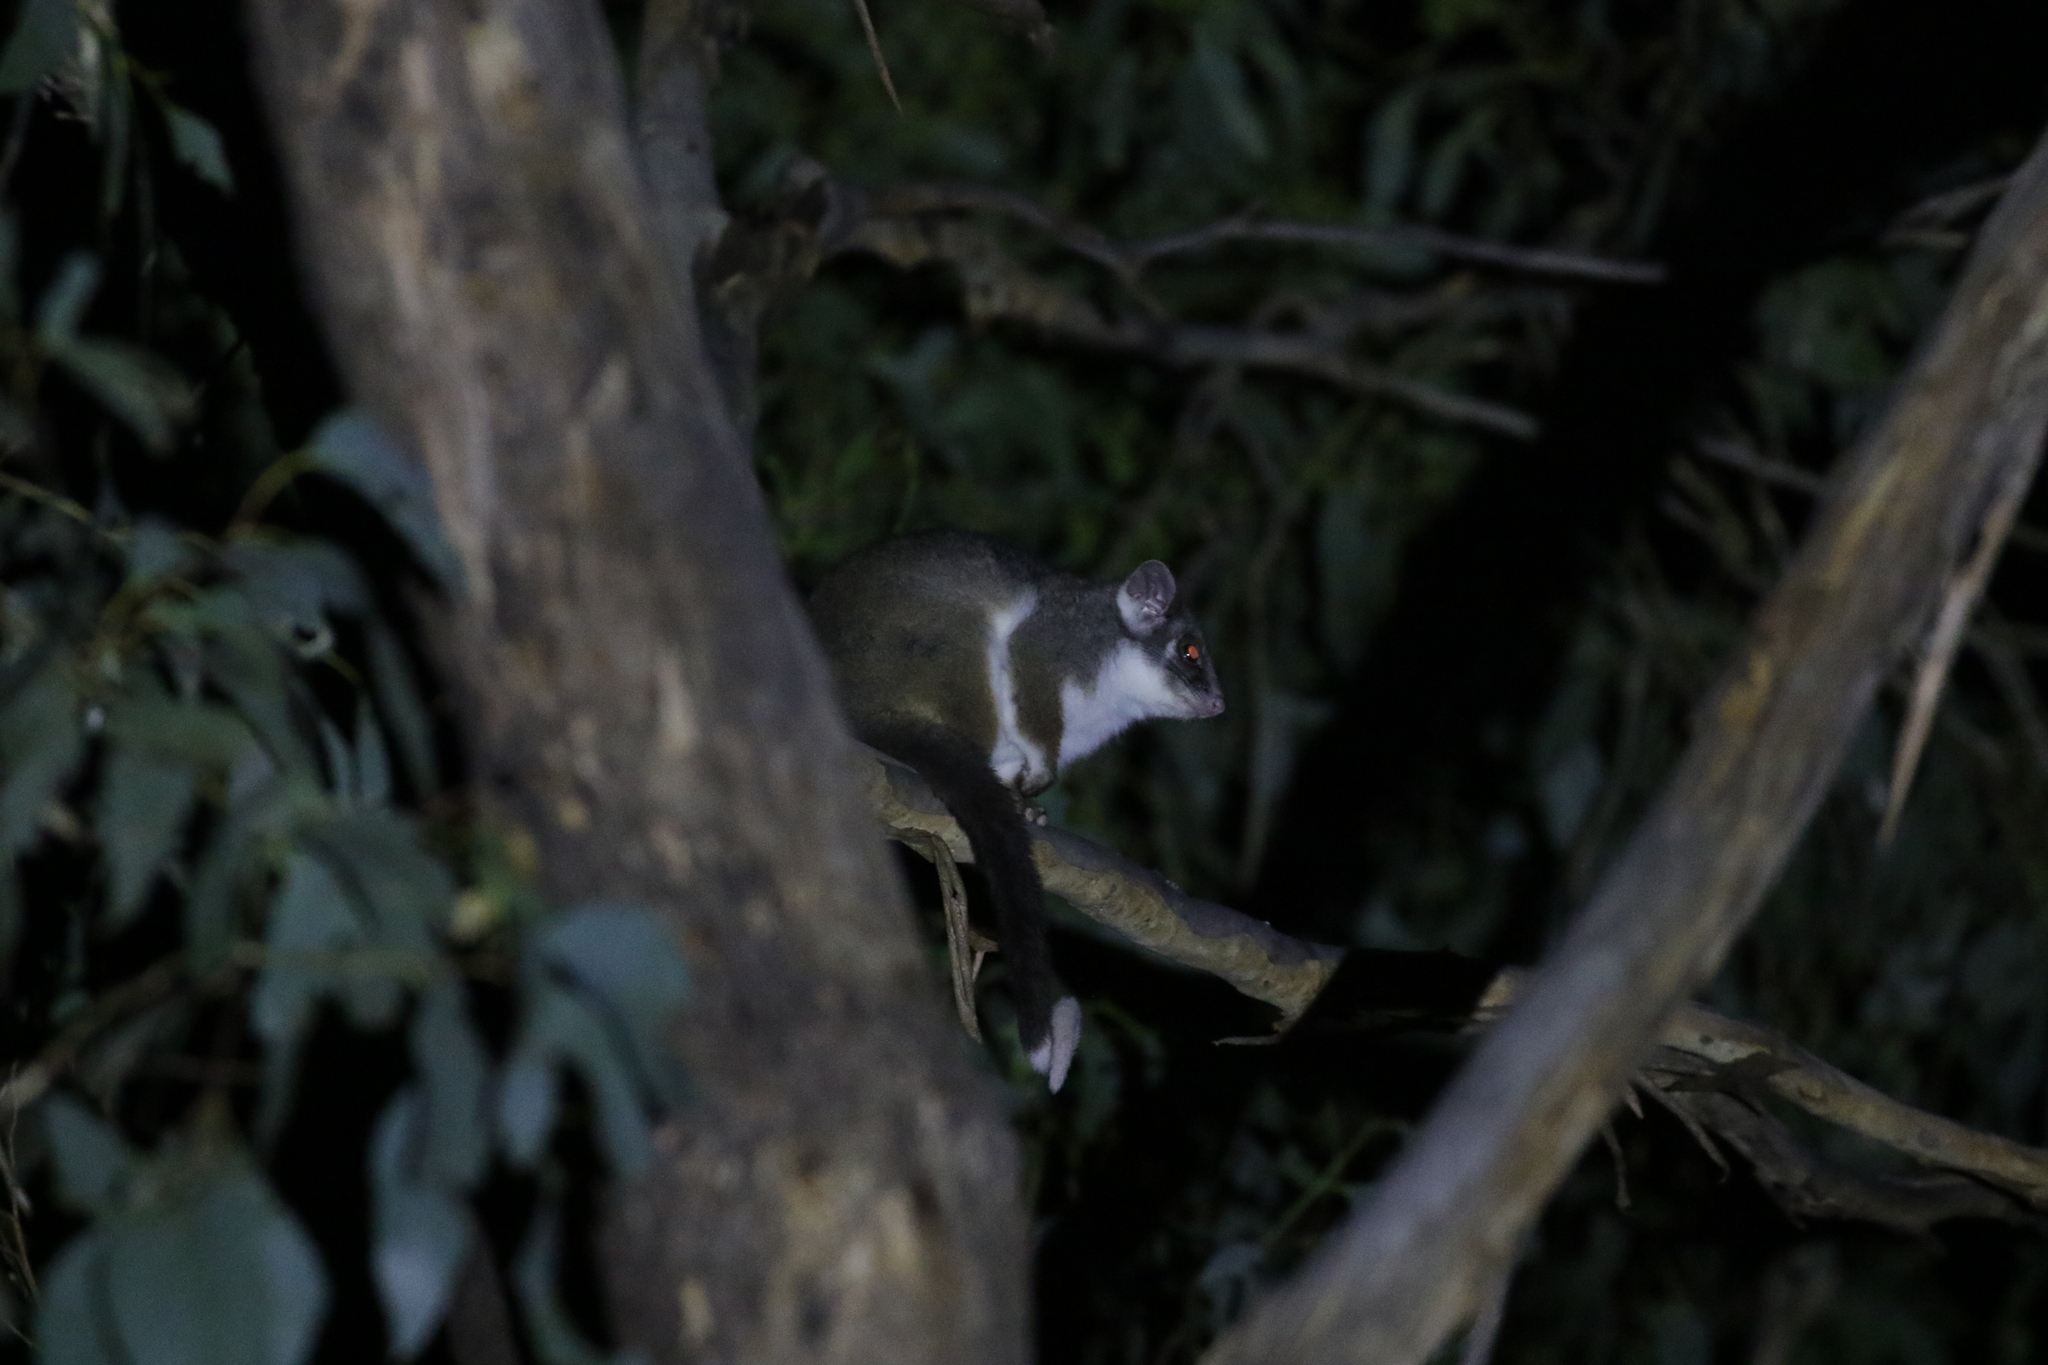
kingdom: Animalia
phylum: Chordata
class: Mammalia
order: Diprotodontia
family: Pseudocheiridae
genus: Pseudocheirus
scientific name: Pseudocheirus peregrinus
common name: Common ringtail possum
